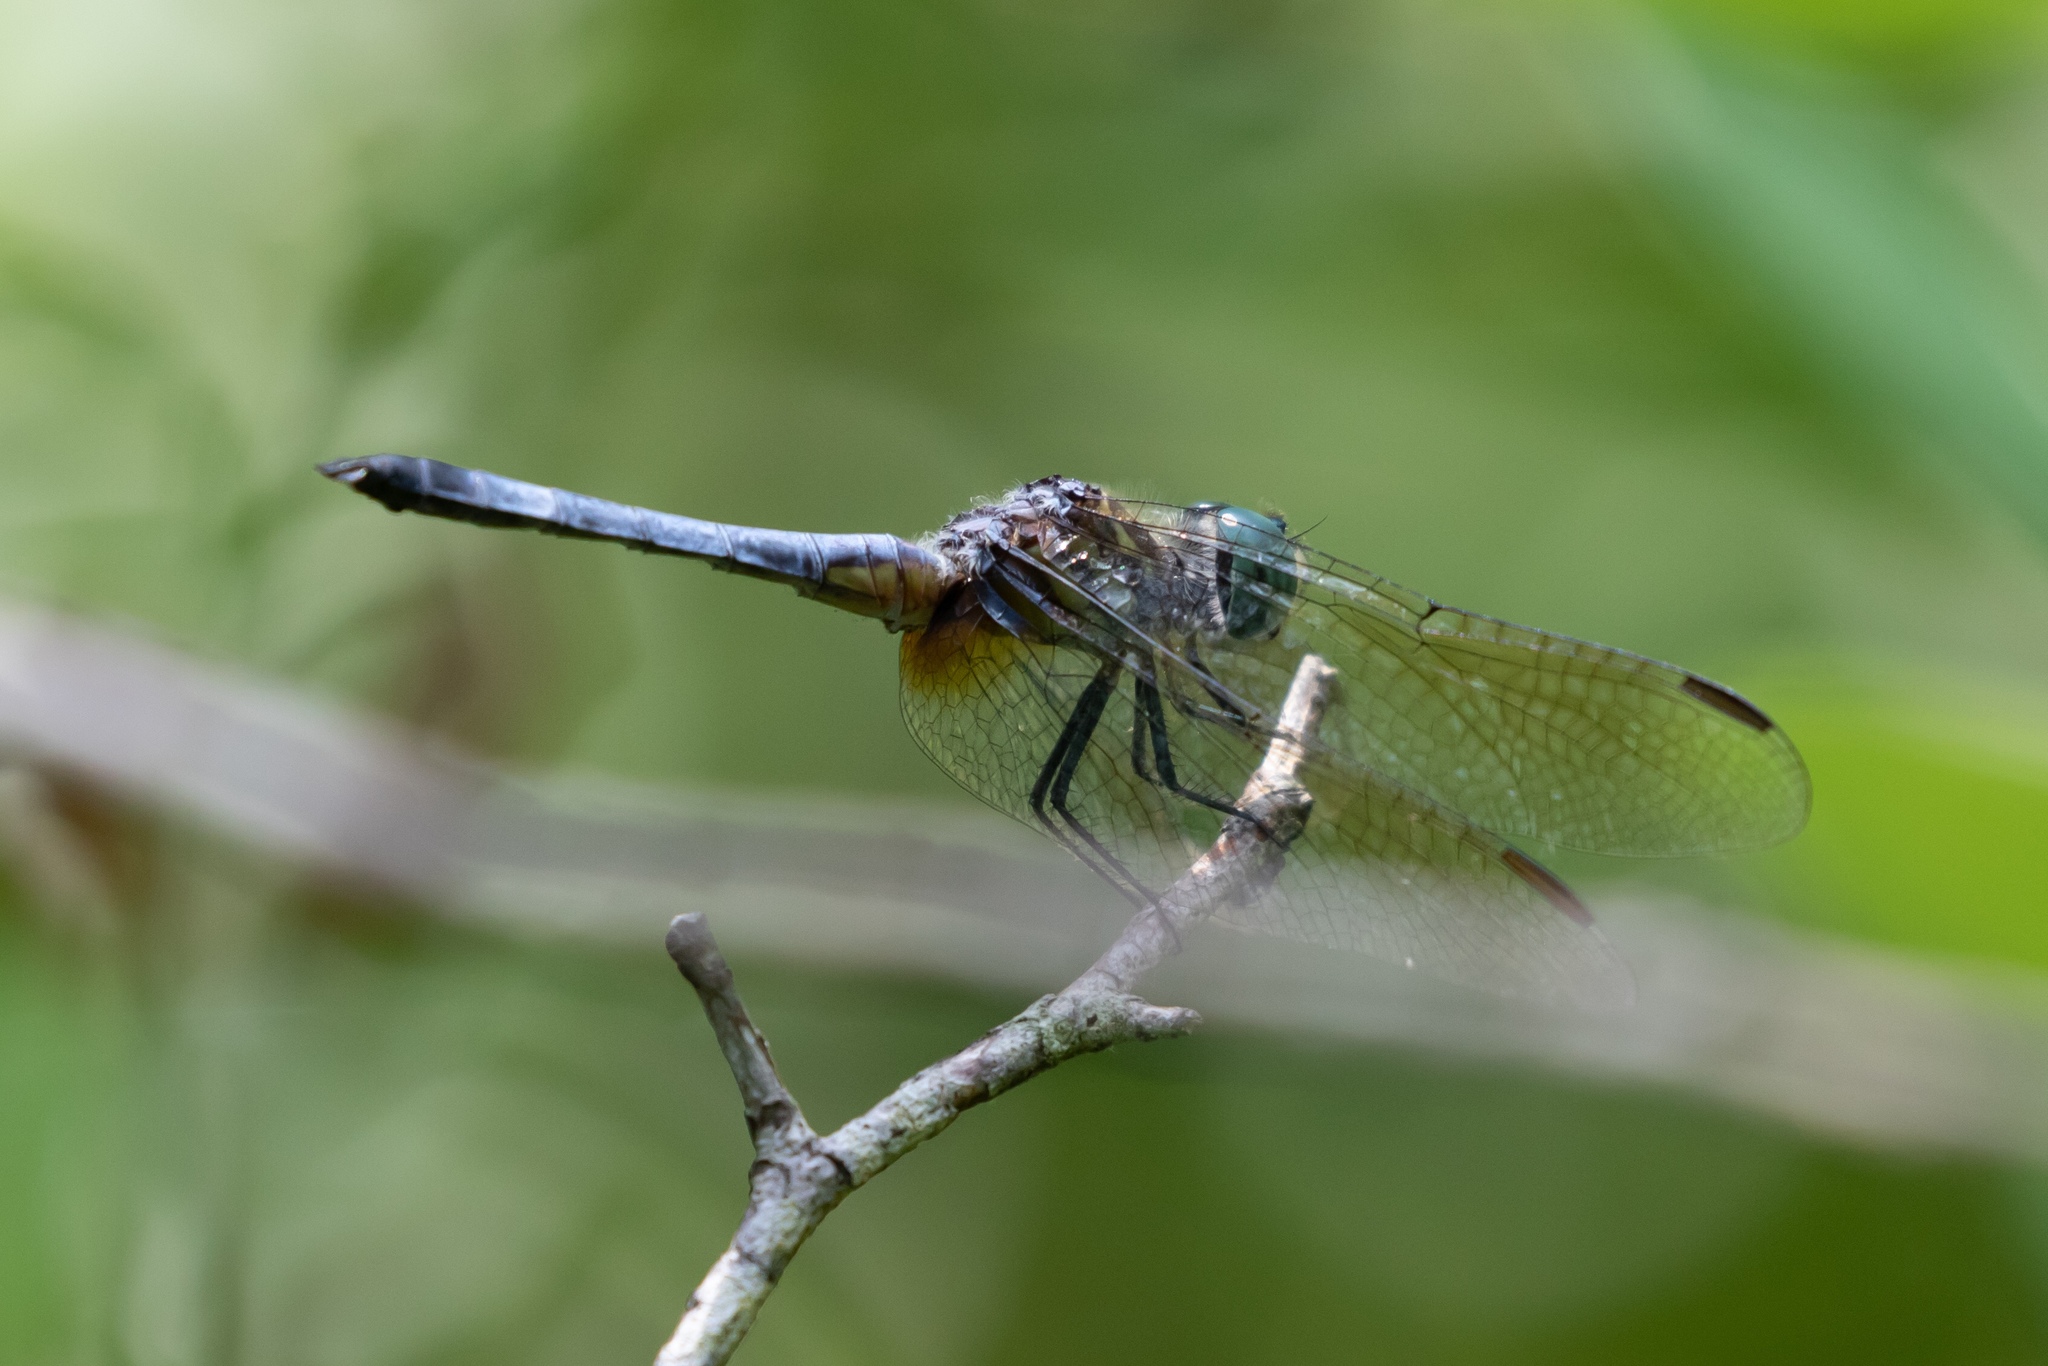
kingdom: Animalia
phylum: Arthropoda
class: Insecta
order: Odonata
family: Libellulidae
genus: Pachydiplax
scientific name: Pachydiplax longipennis
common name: Blue dasher
